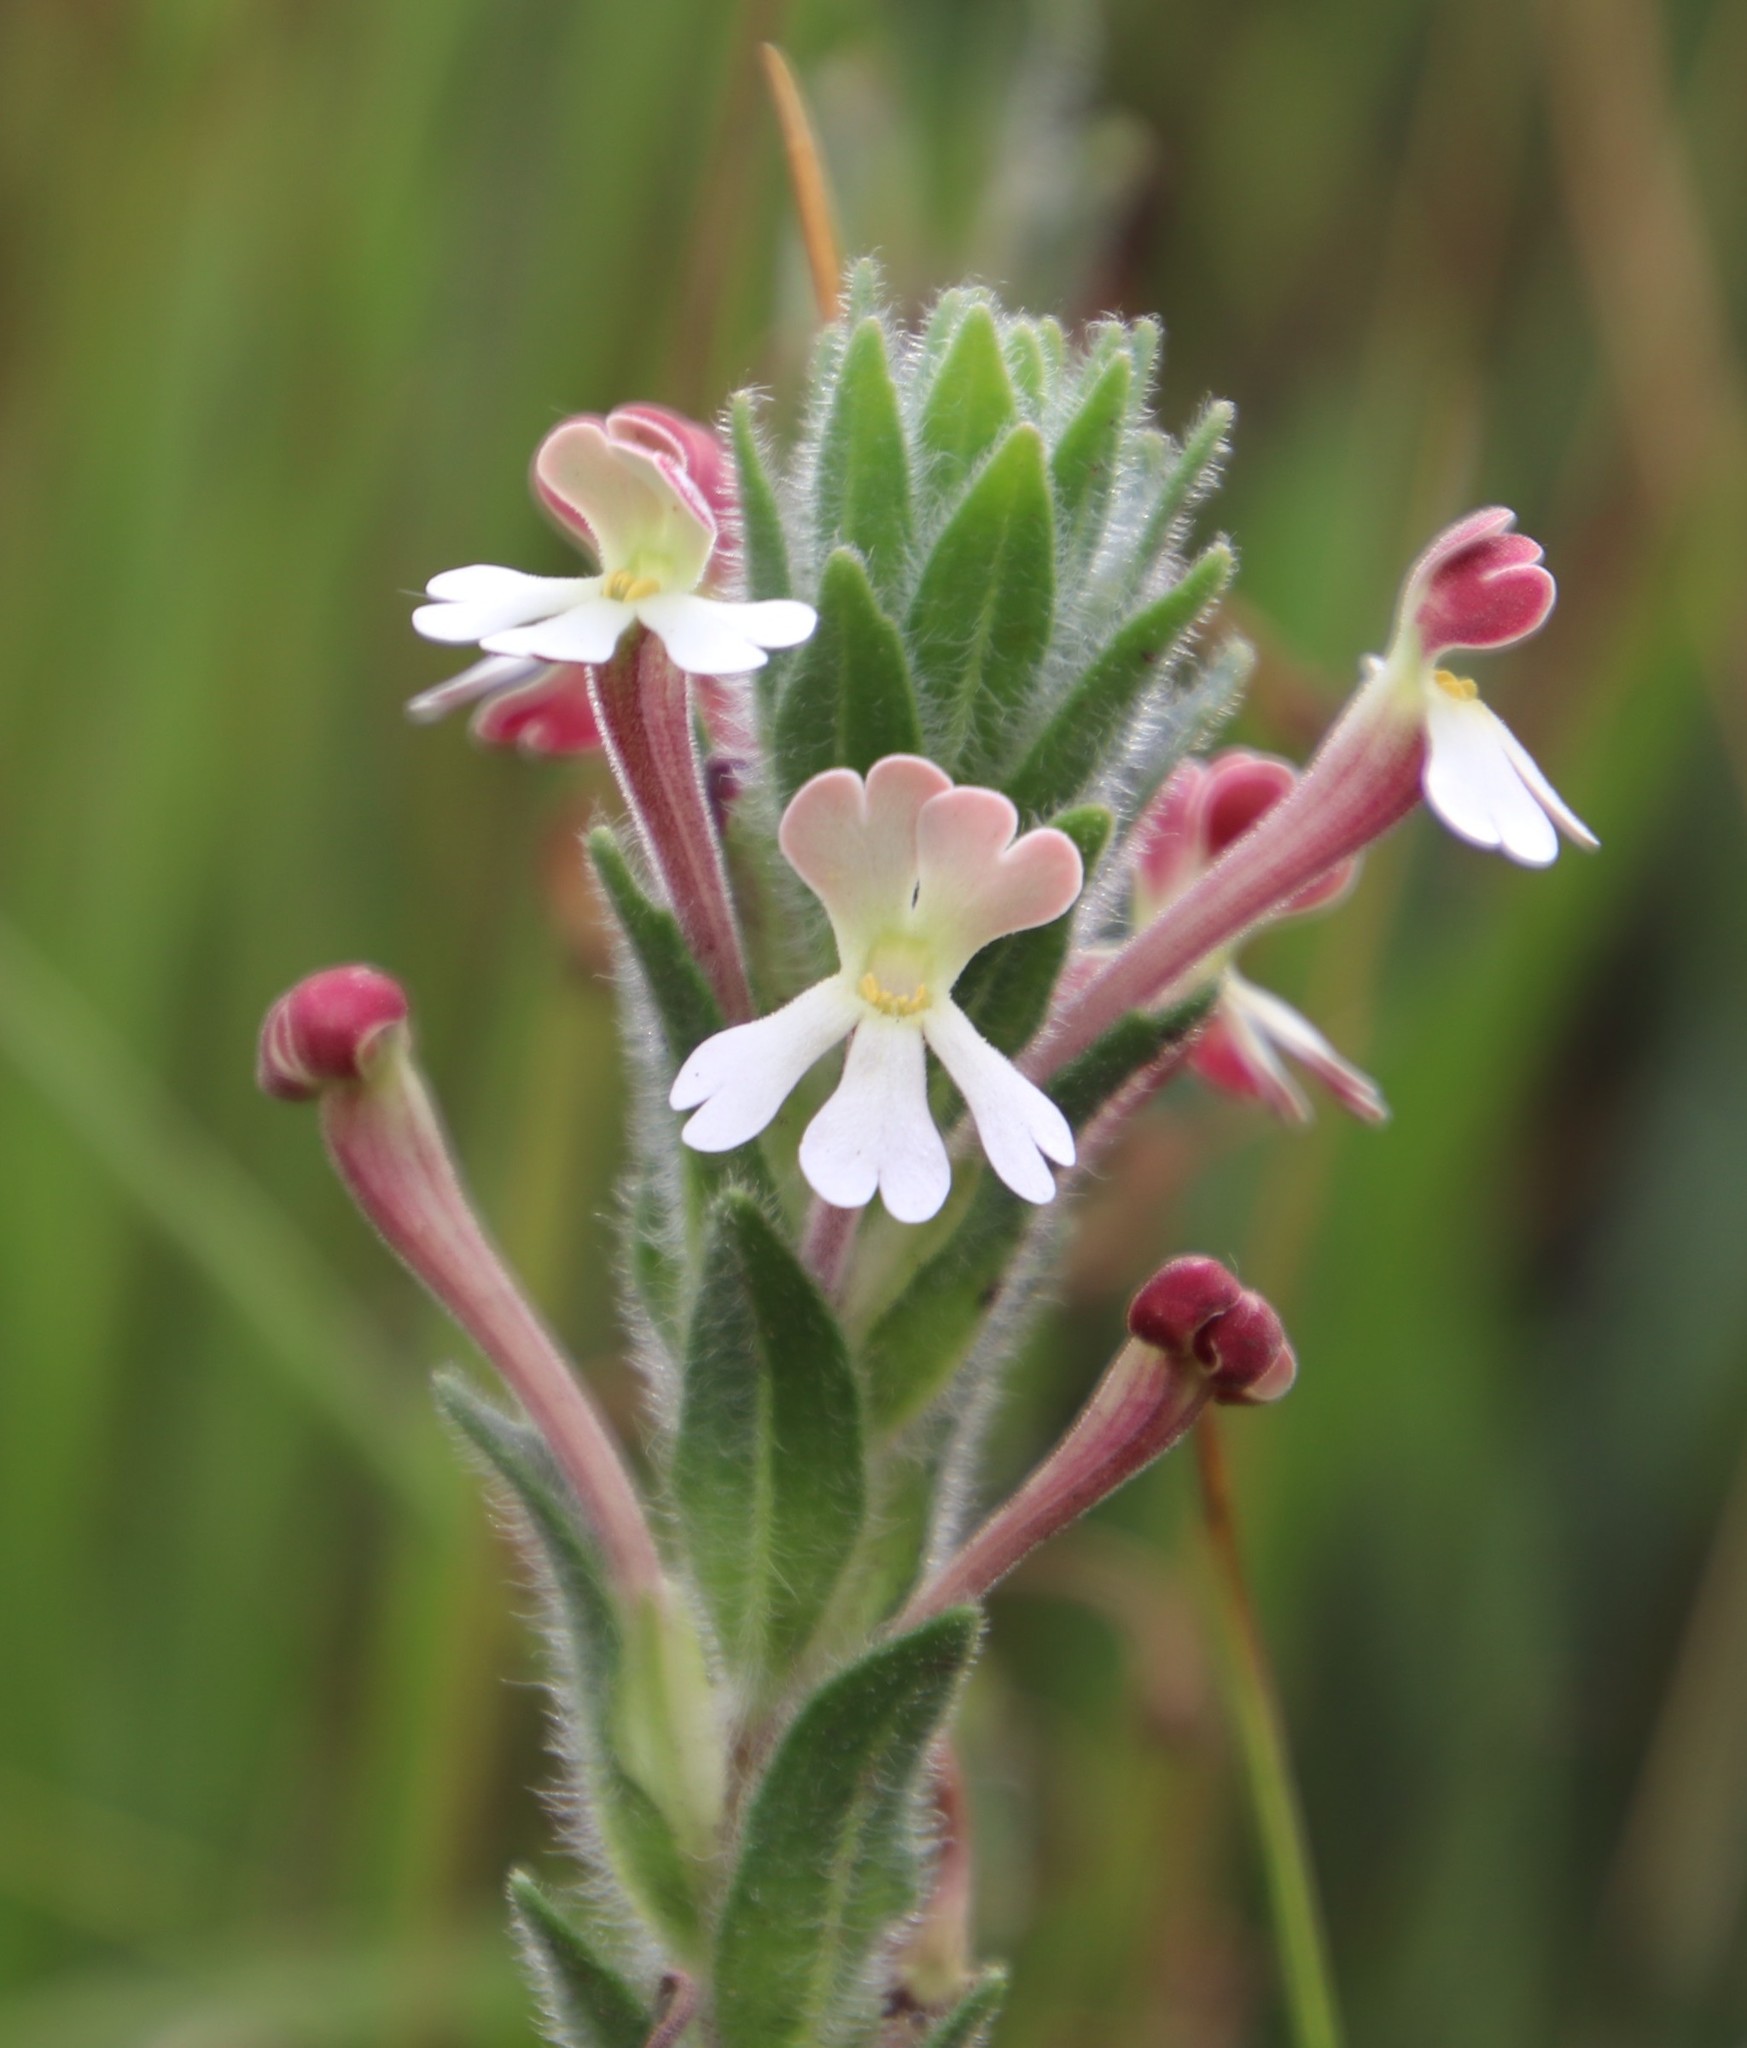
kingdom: Plantae
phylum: Tracheophyta
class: Magnoliopsida
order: Lamiales
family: Scrophulariaceae
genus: Zaluzianskya
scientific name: Zaluzianskya microsiphon
